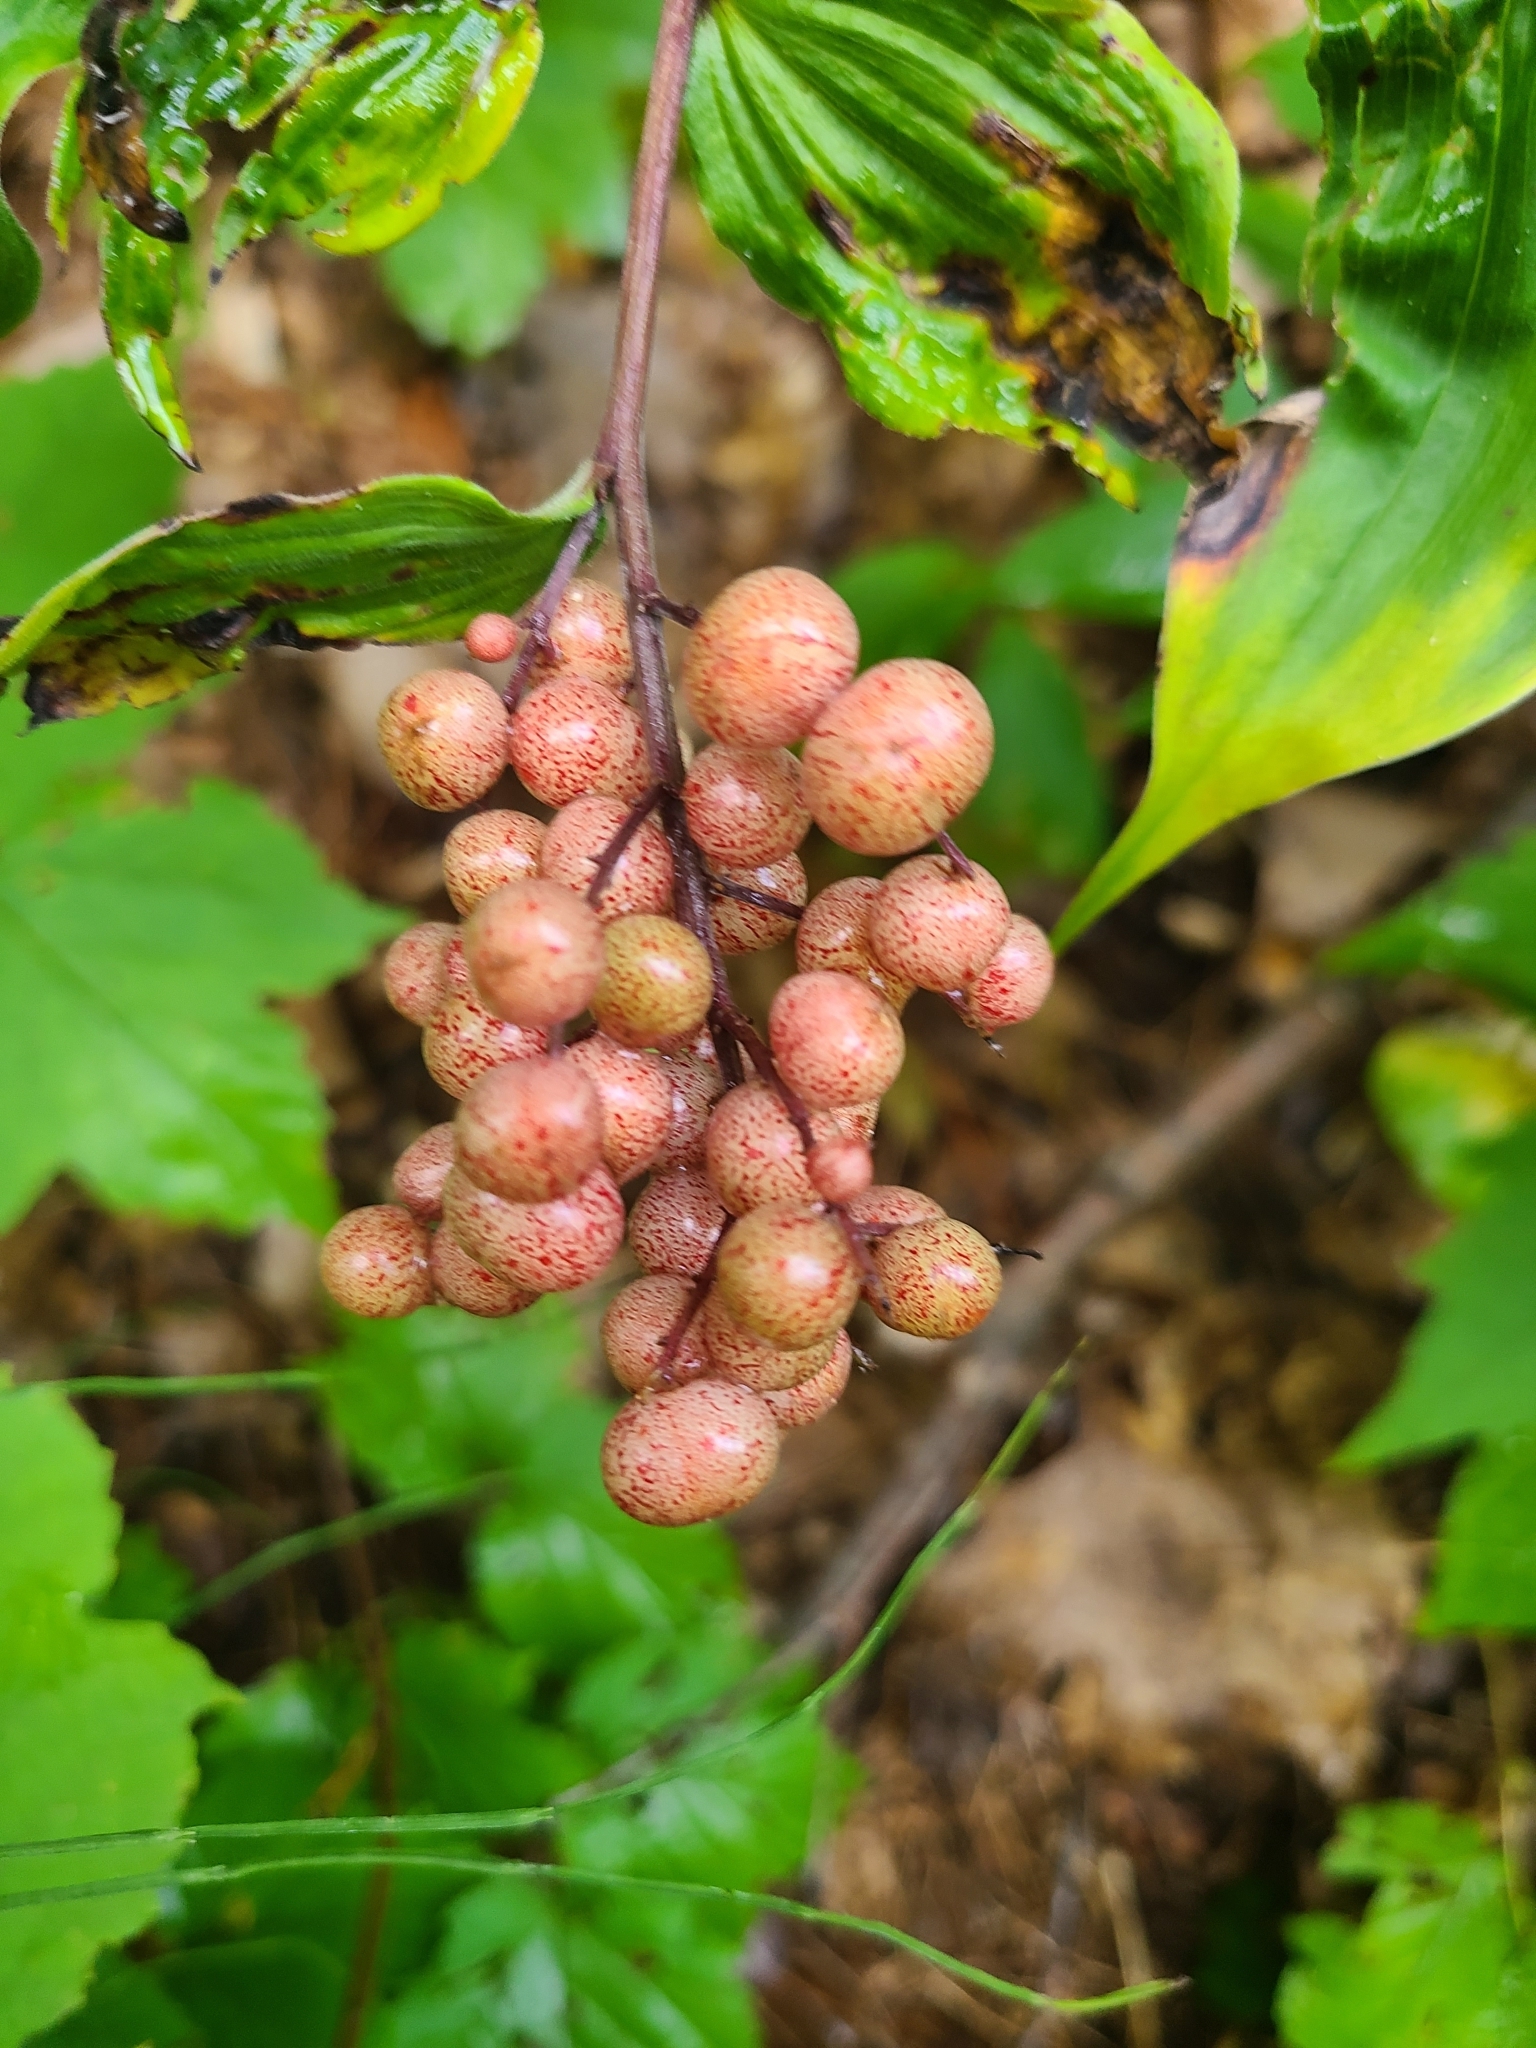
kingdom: Plantae
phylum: Tracheophyta
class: Liliopsida
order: Asparagales
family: Asparagaceae
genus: Maianthemum
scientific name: Maianthemum racemosum
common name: False spikenard
